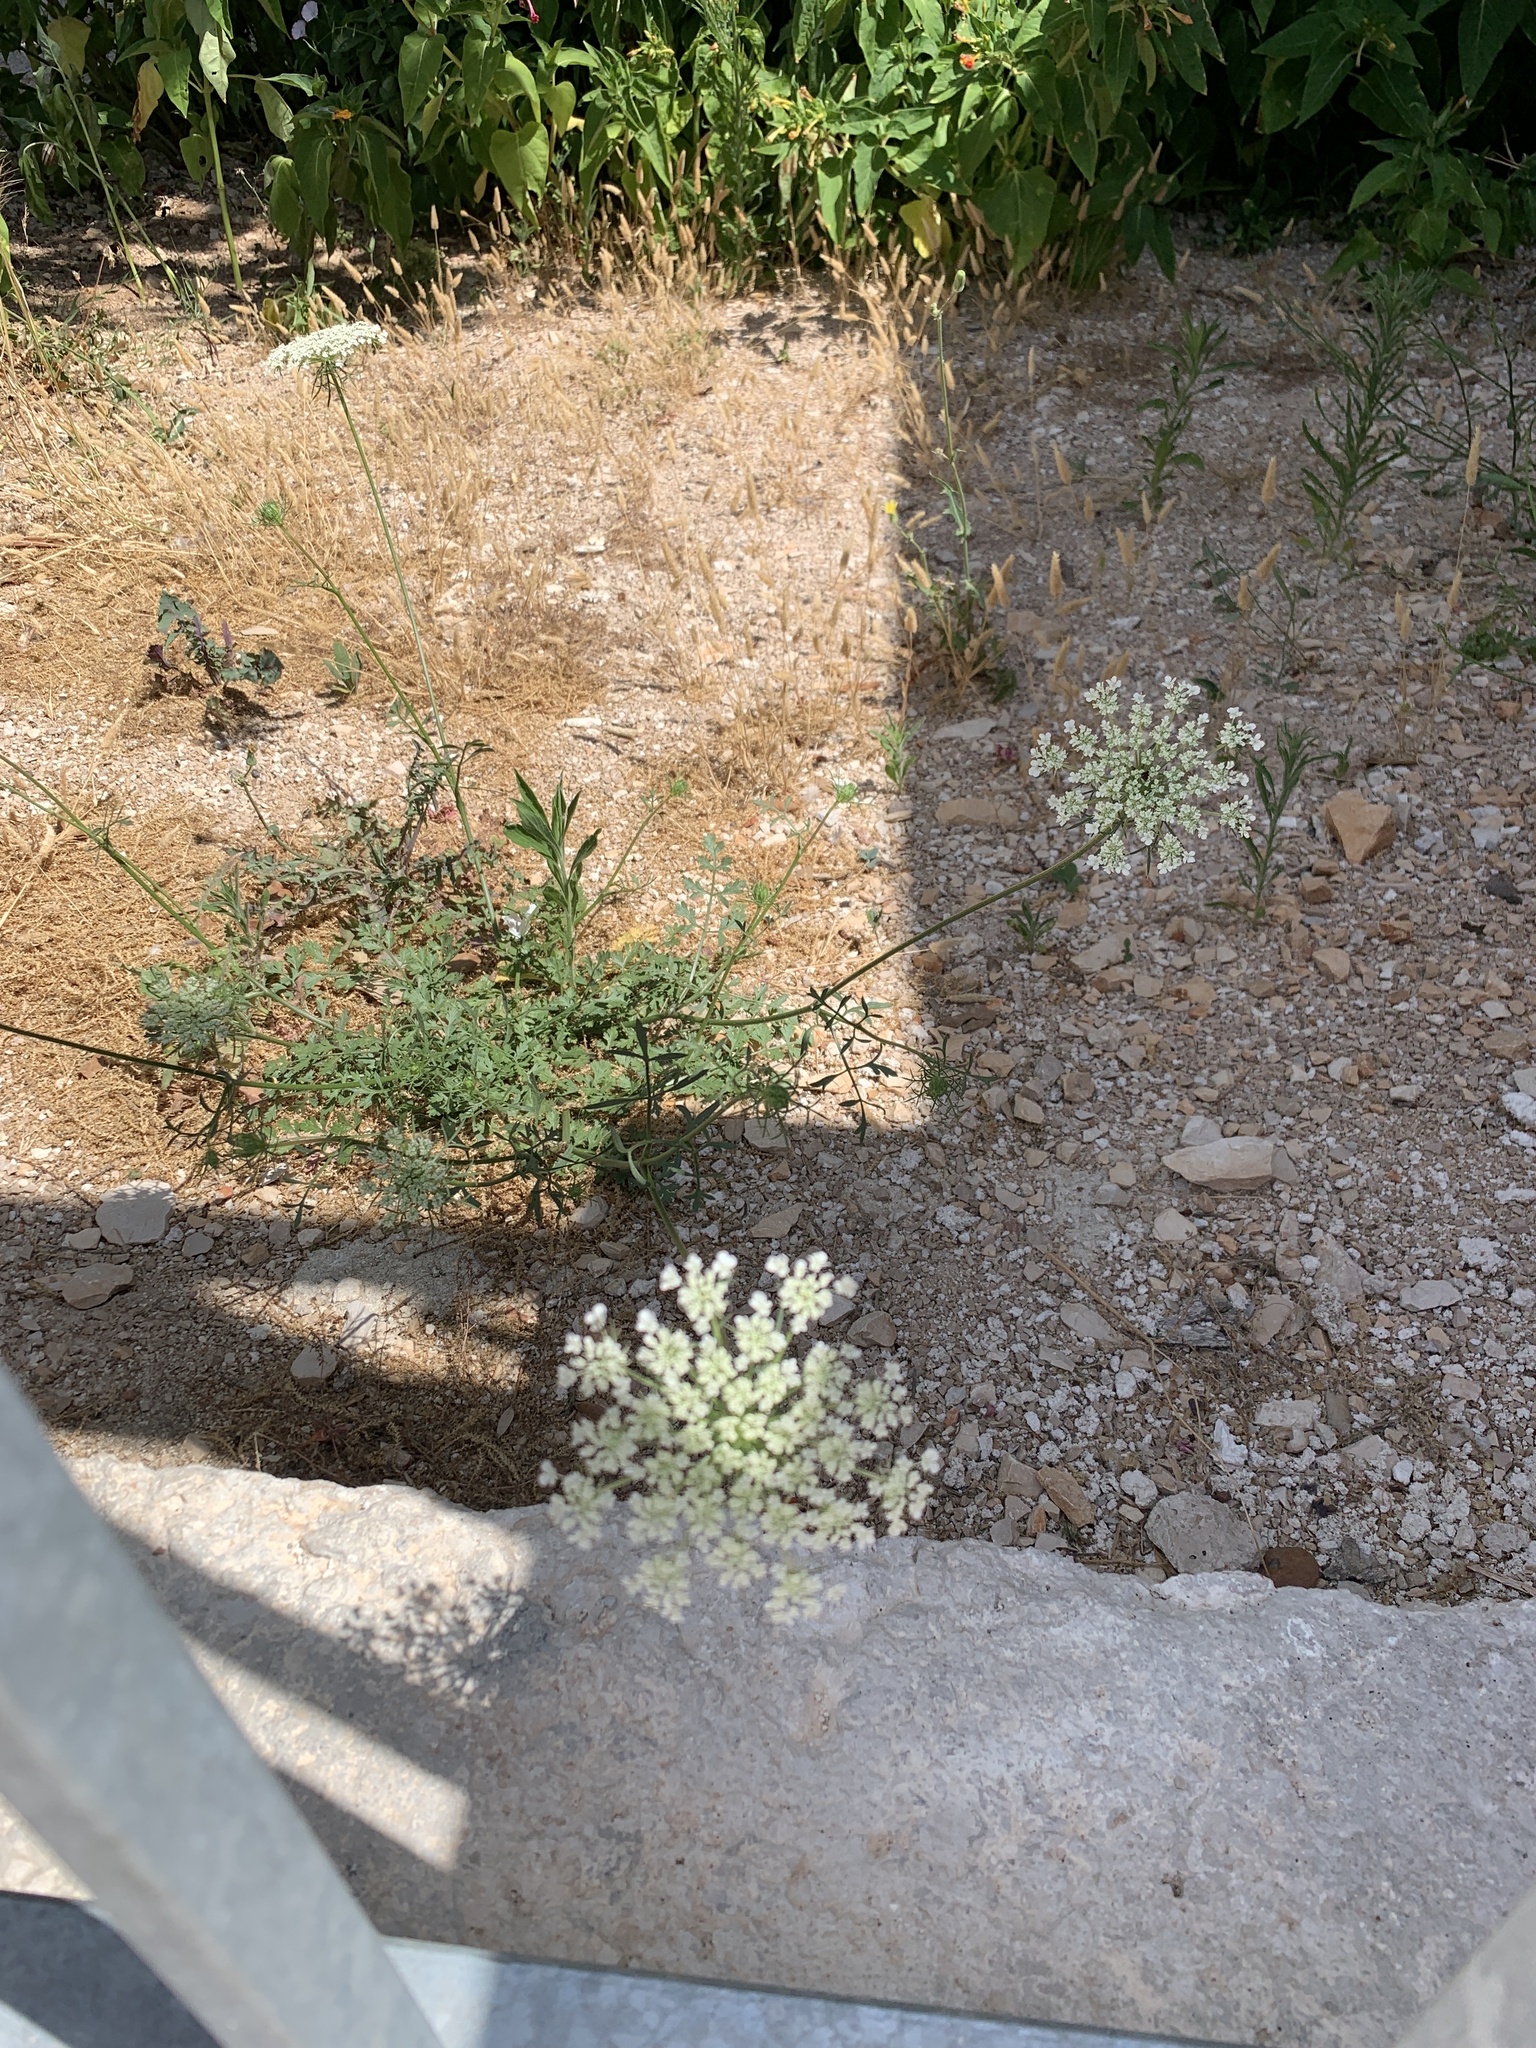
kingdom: Plantae
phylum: Tracheophyta
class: Magnoliopsida
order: Apiales
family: Apiaceae
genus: Daucus
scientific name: Daucus carota
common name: Wild carrot
